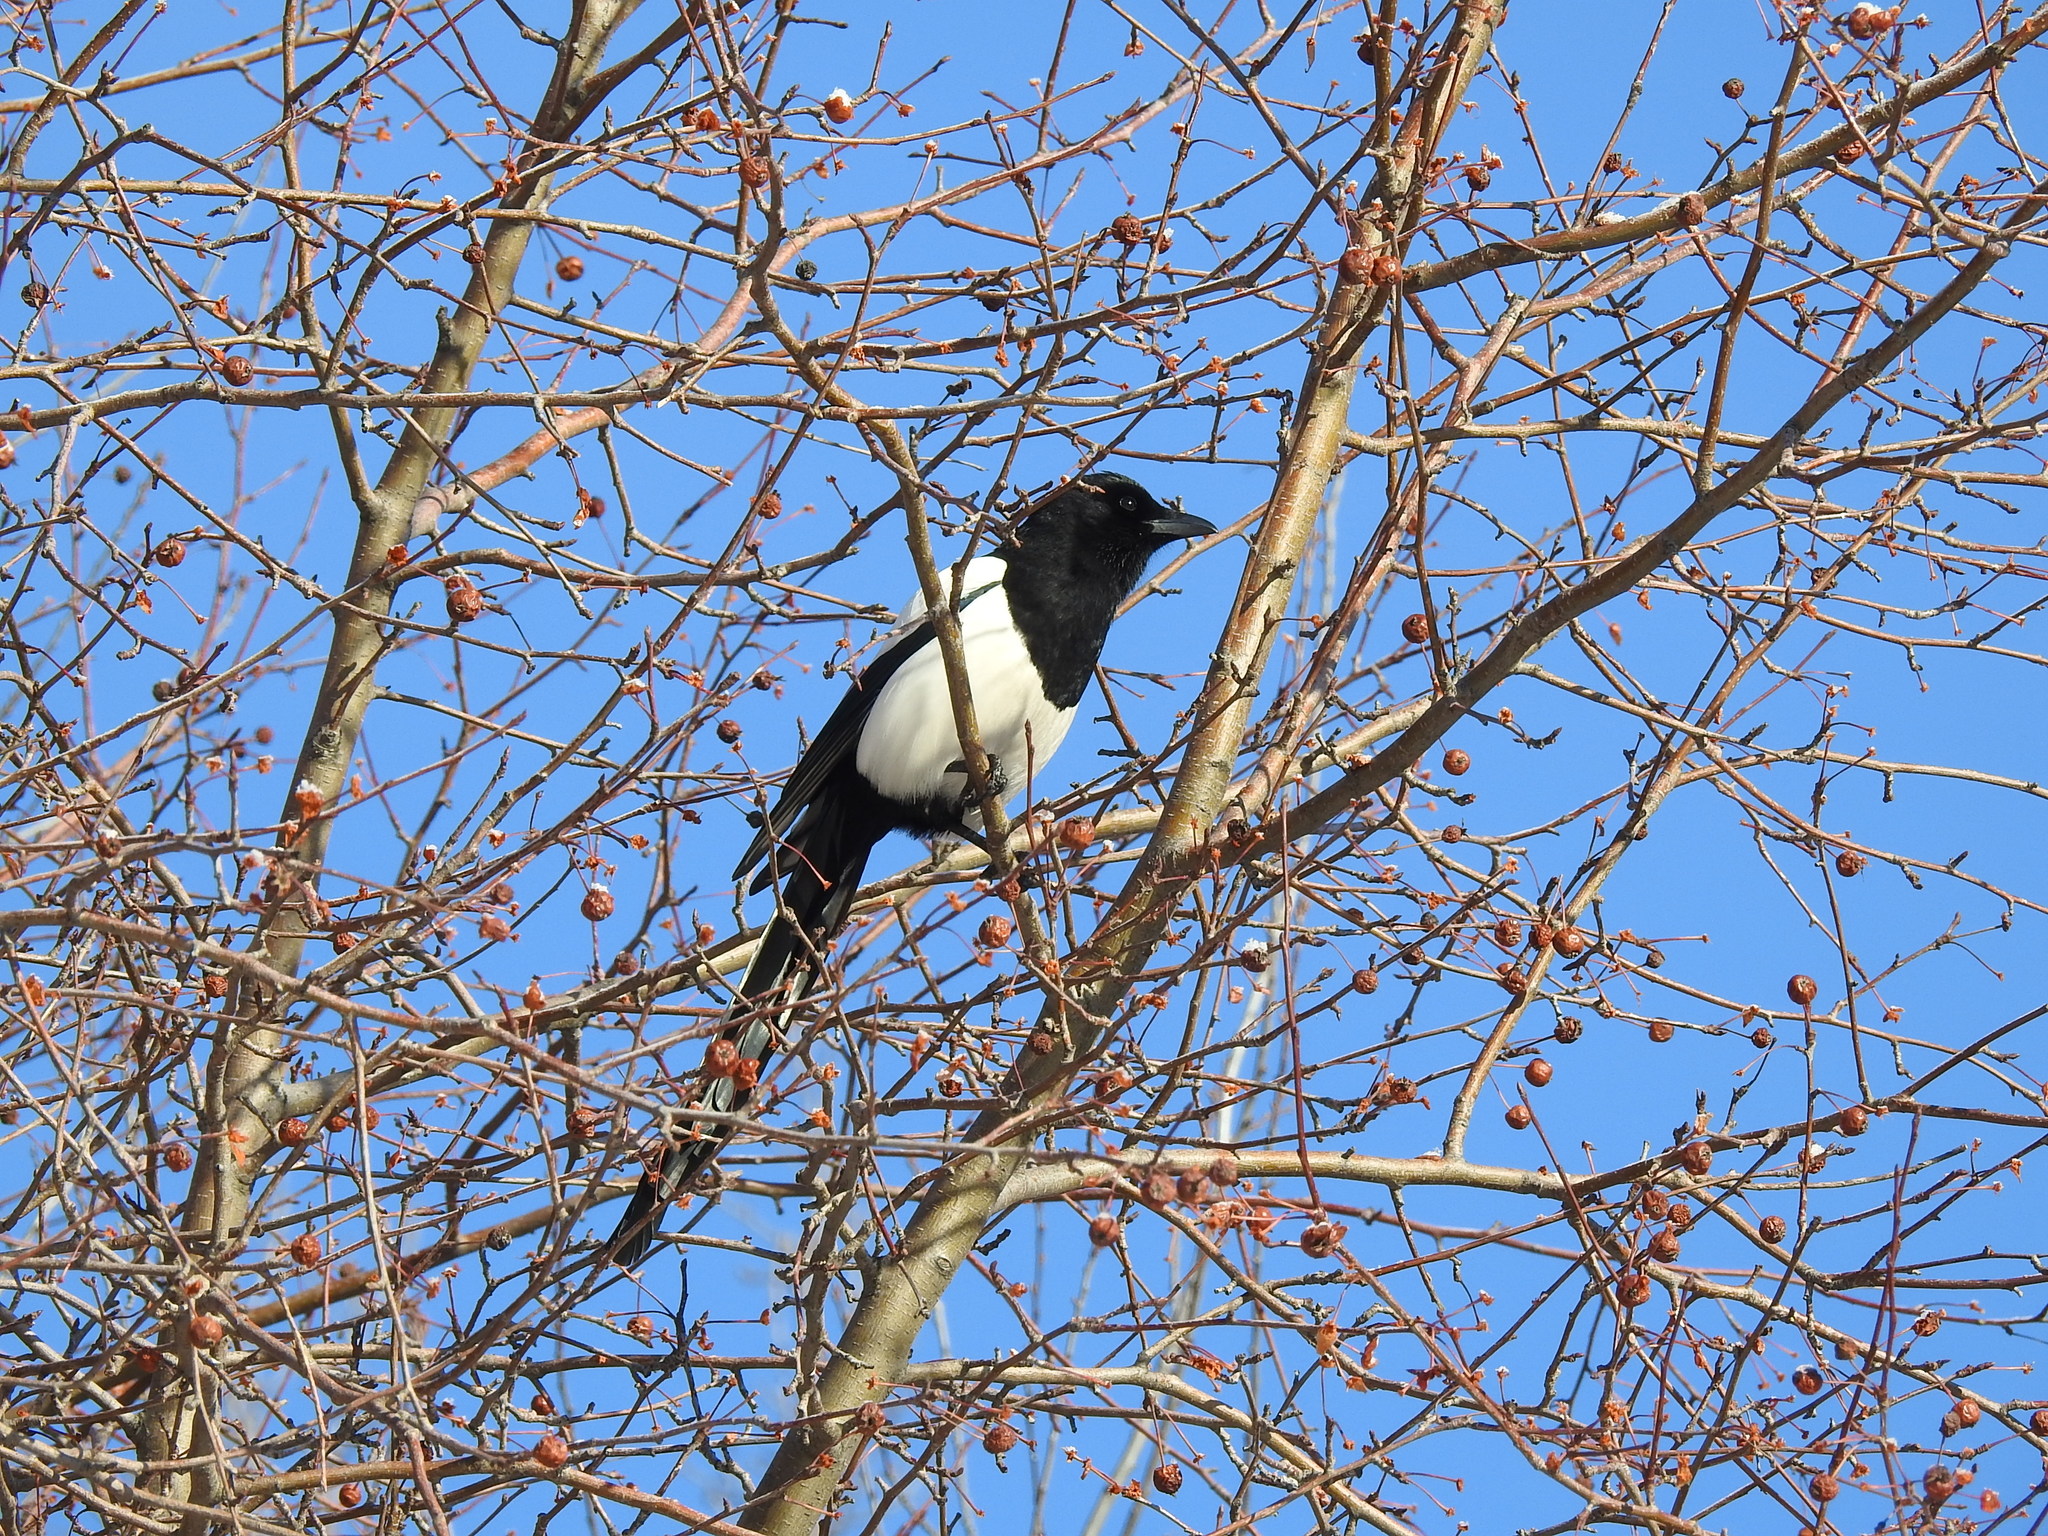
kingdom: Animalia
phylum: Chordata
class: Aves
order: Passeriformes
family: Corvidae
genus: Pica
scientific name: Pica pica
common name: Eurasian magpie
